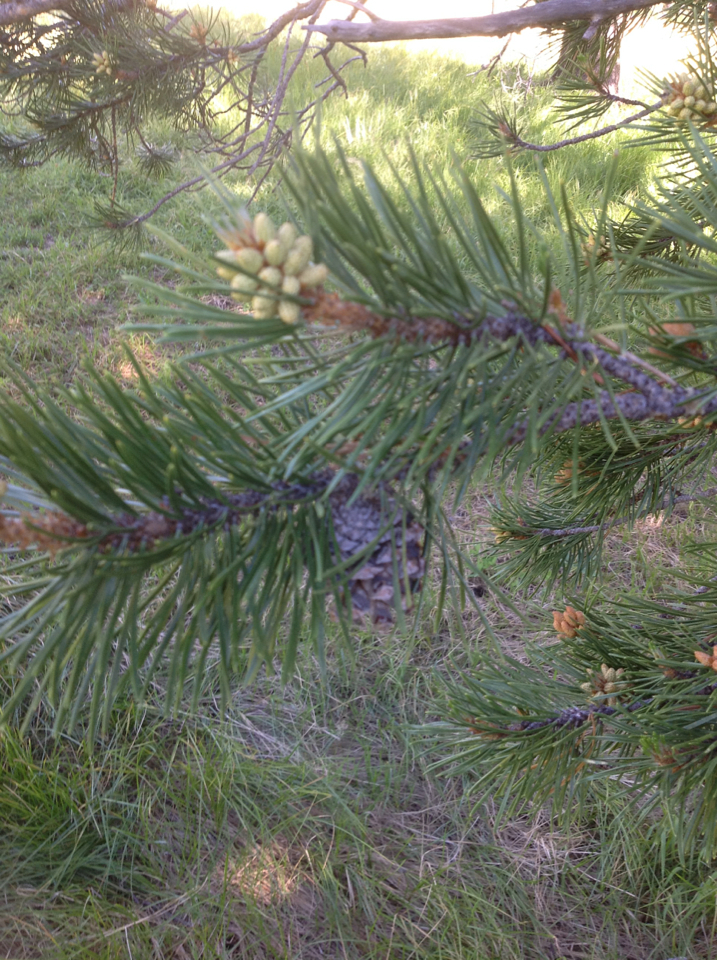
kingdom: Plantae
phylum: Tracheophyta
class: Pinopsida
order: Pinales
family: Pinaceae
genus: Pinus
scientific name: Pinus contorta
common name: Lodgepole pine
